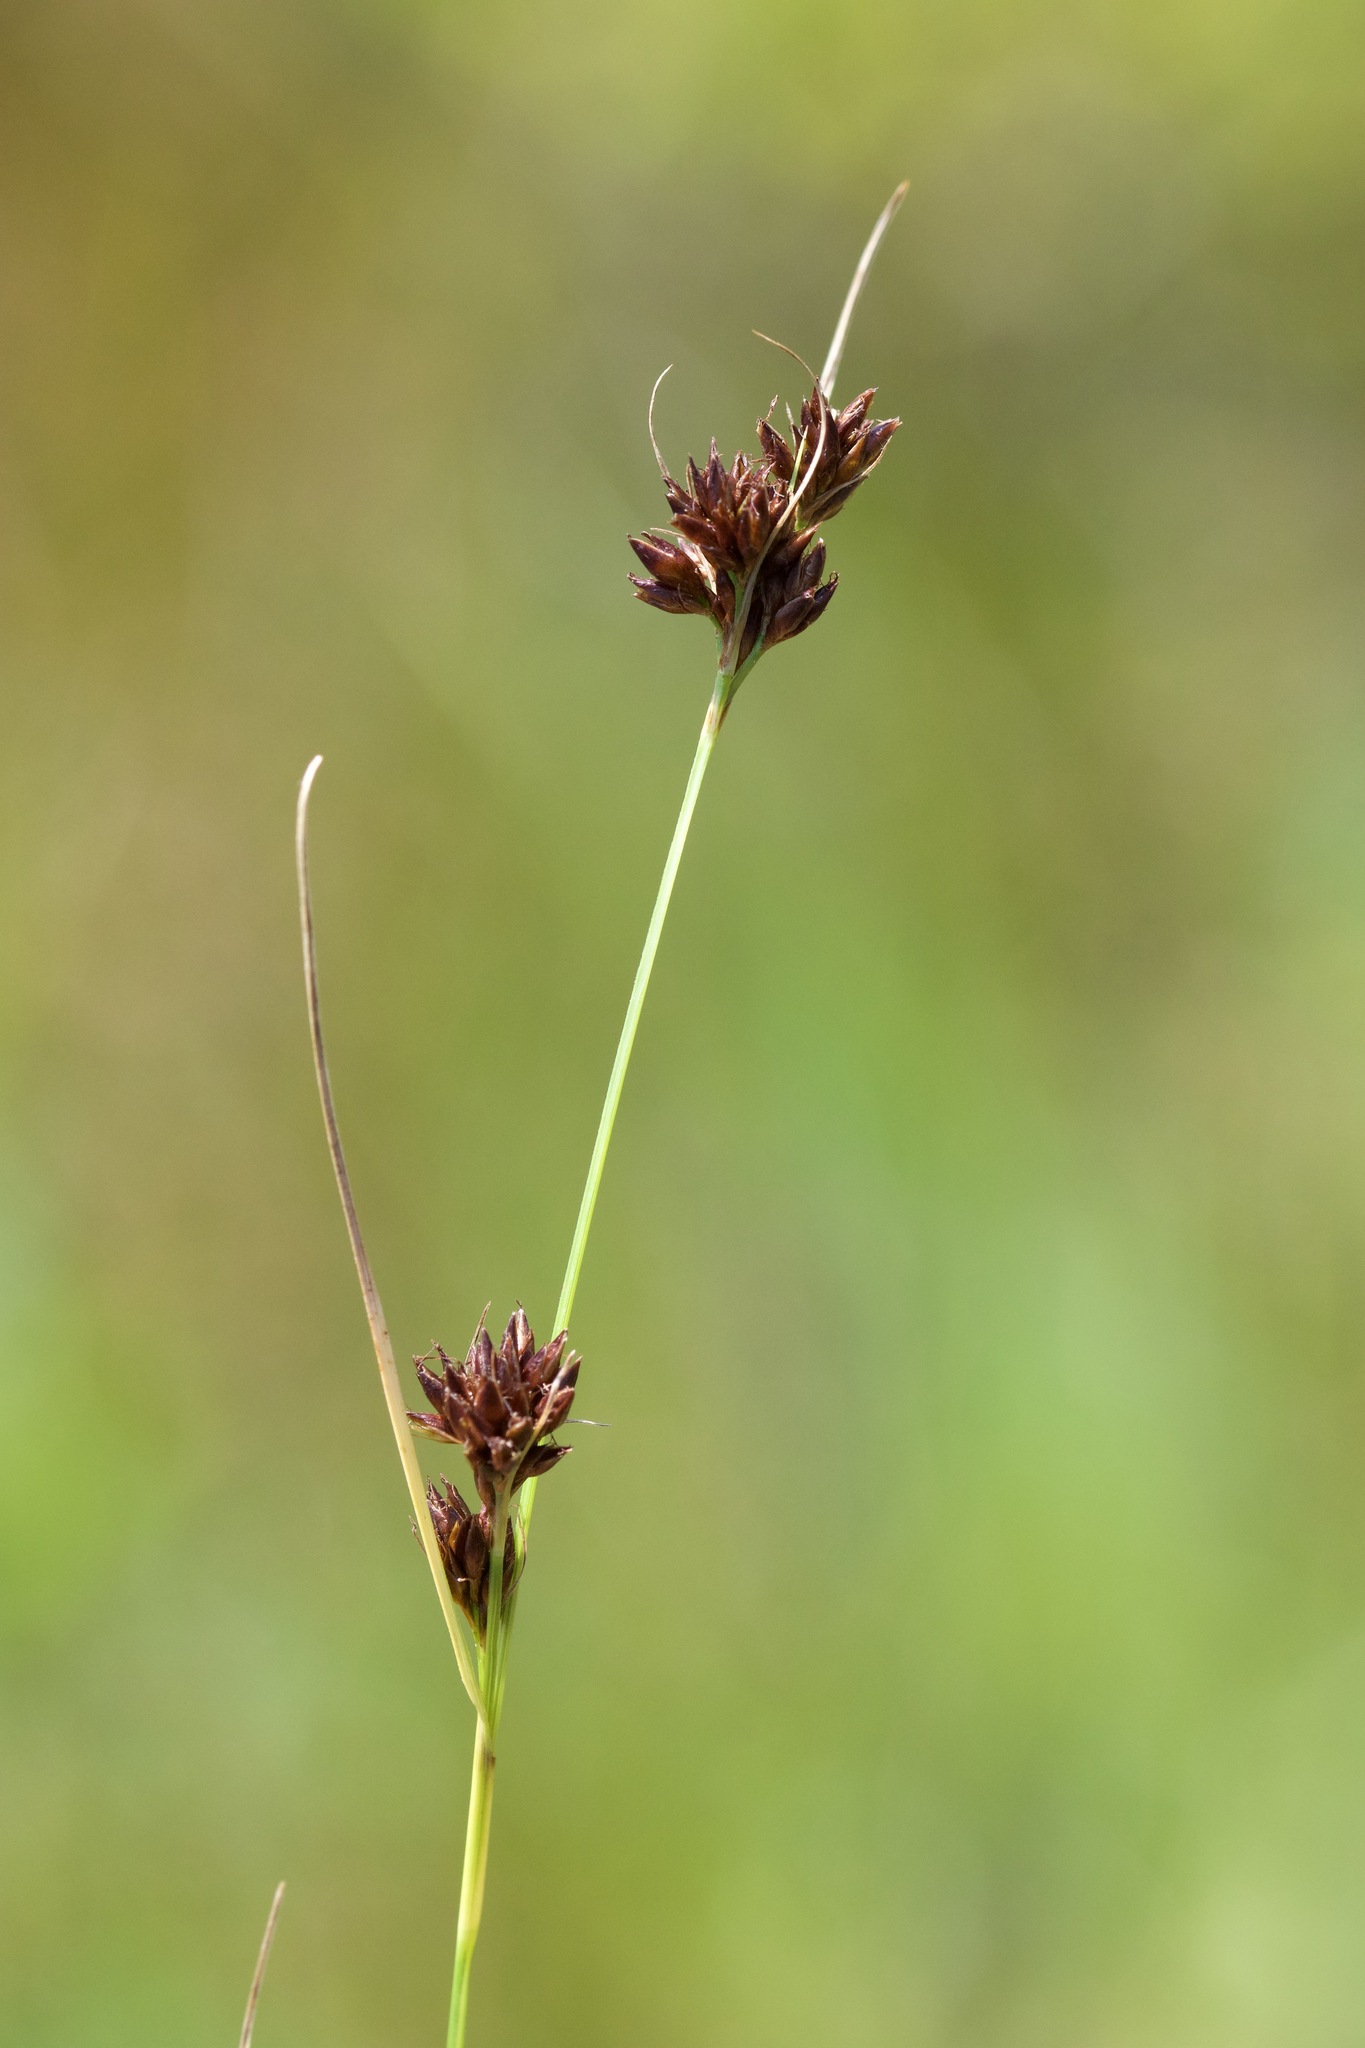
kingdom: Plantae
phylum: Tracheophyta
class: Liliopsida
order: Poales
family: Cyperaceae
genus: Rhynchospora
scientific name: Rhynchospora capitellata
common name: Brownish beaksedge
